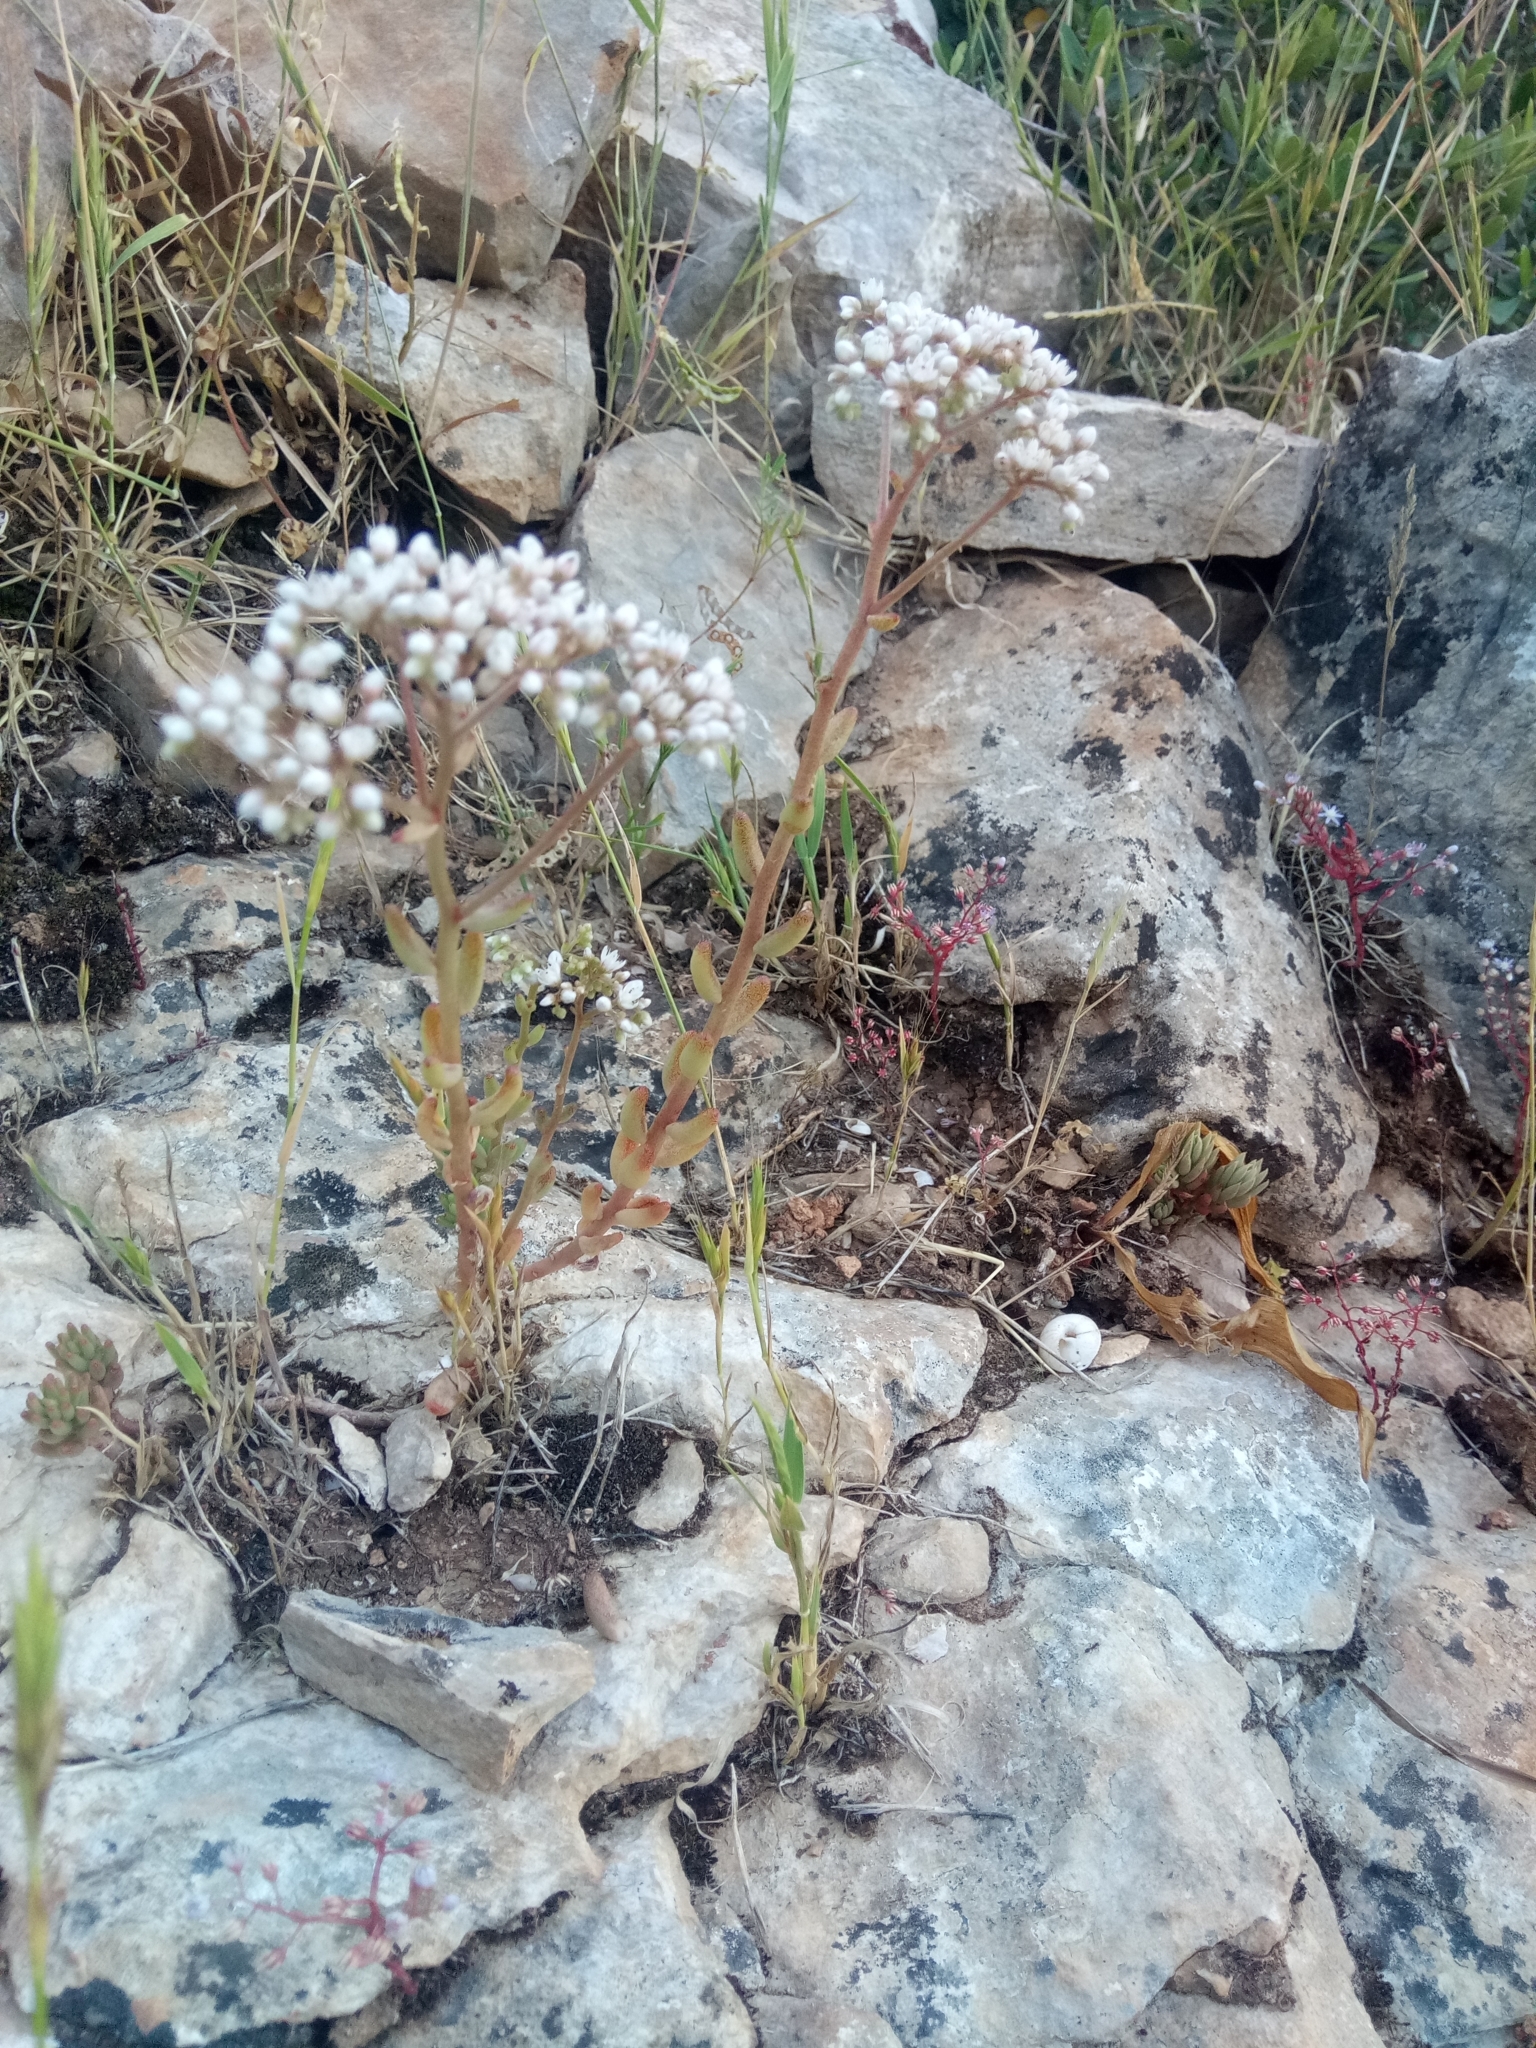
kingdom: Plantae
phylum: Tracheophyta
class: Magnoliopsida
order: Saxifragales
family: Crassulaceae
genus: Sedum
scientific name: Sedum gypsicola
